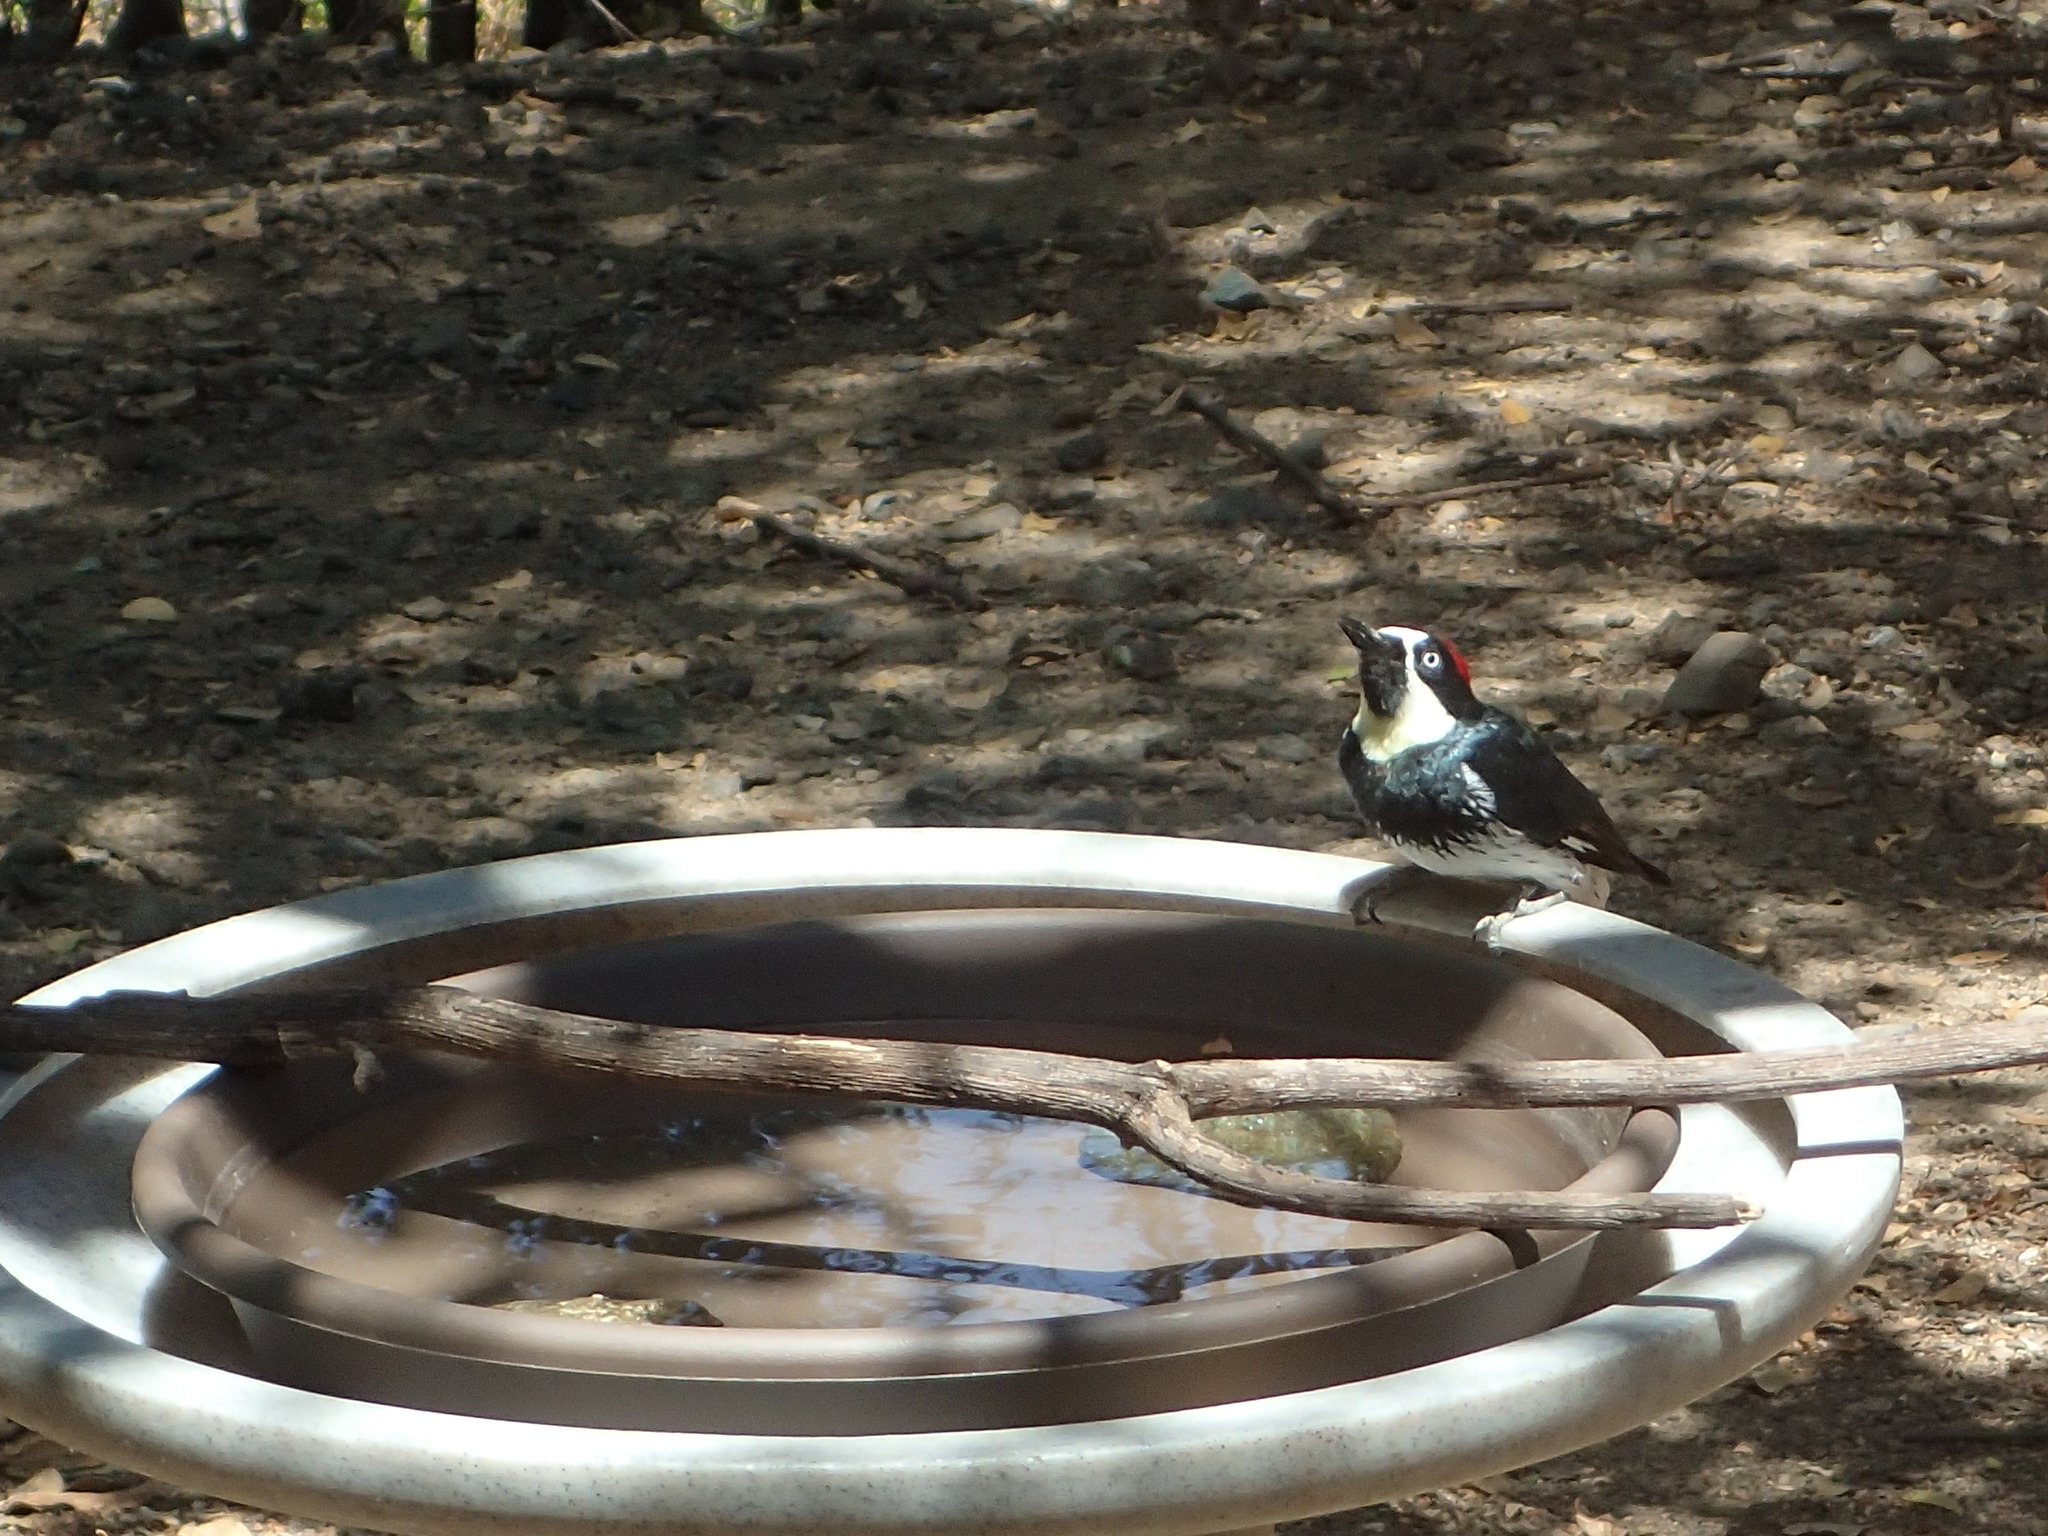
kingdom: Animalia
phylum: Chordata
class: Aves
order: Piciformes
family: Picidae
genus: Melanerpes
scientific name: Melanerpes formicivorus
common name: Acorn woodpecker
